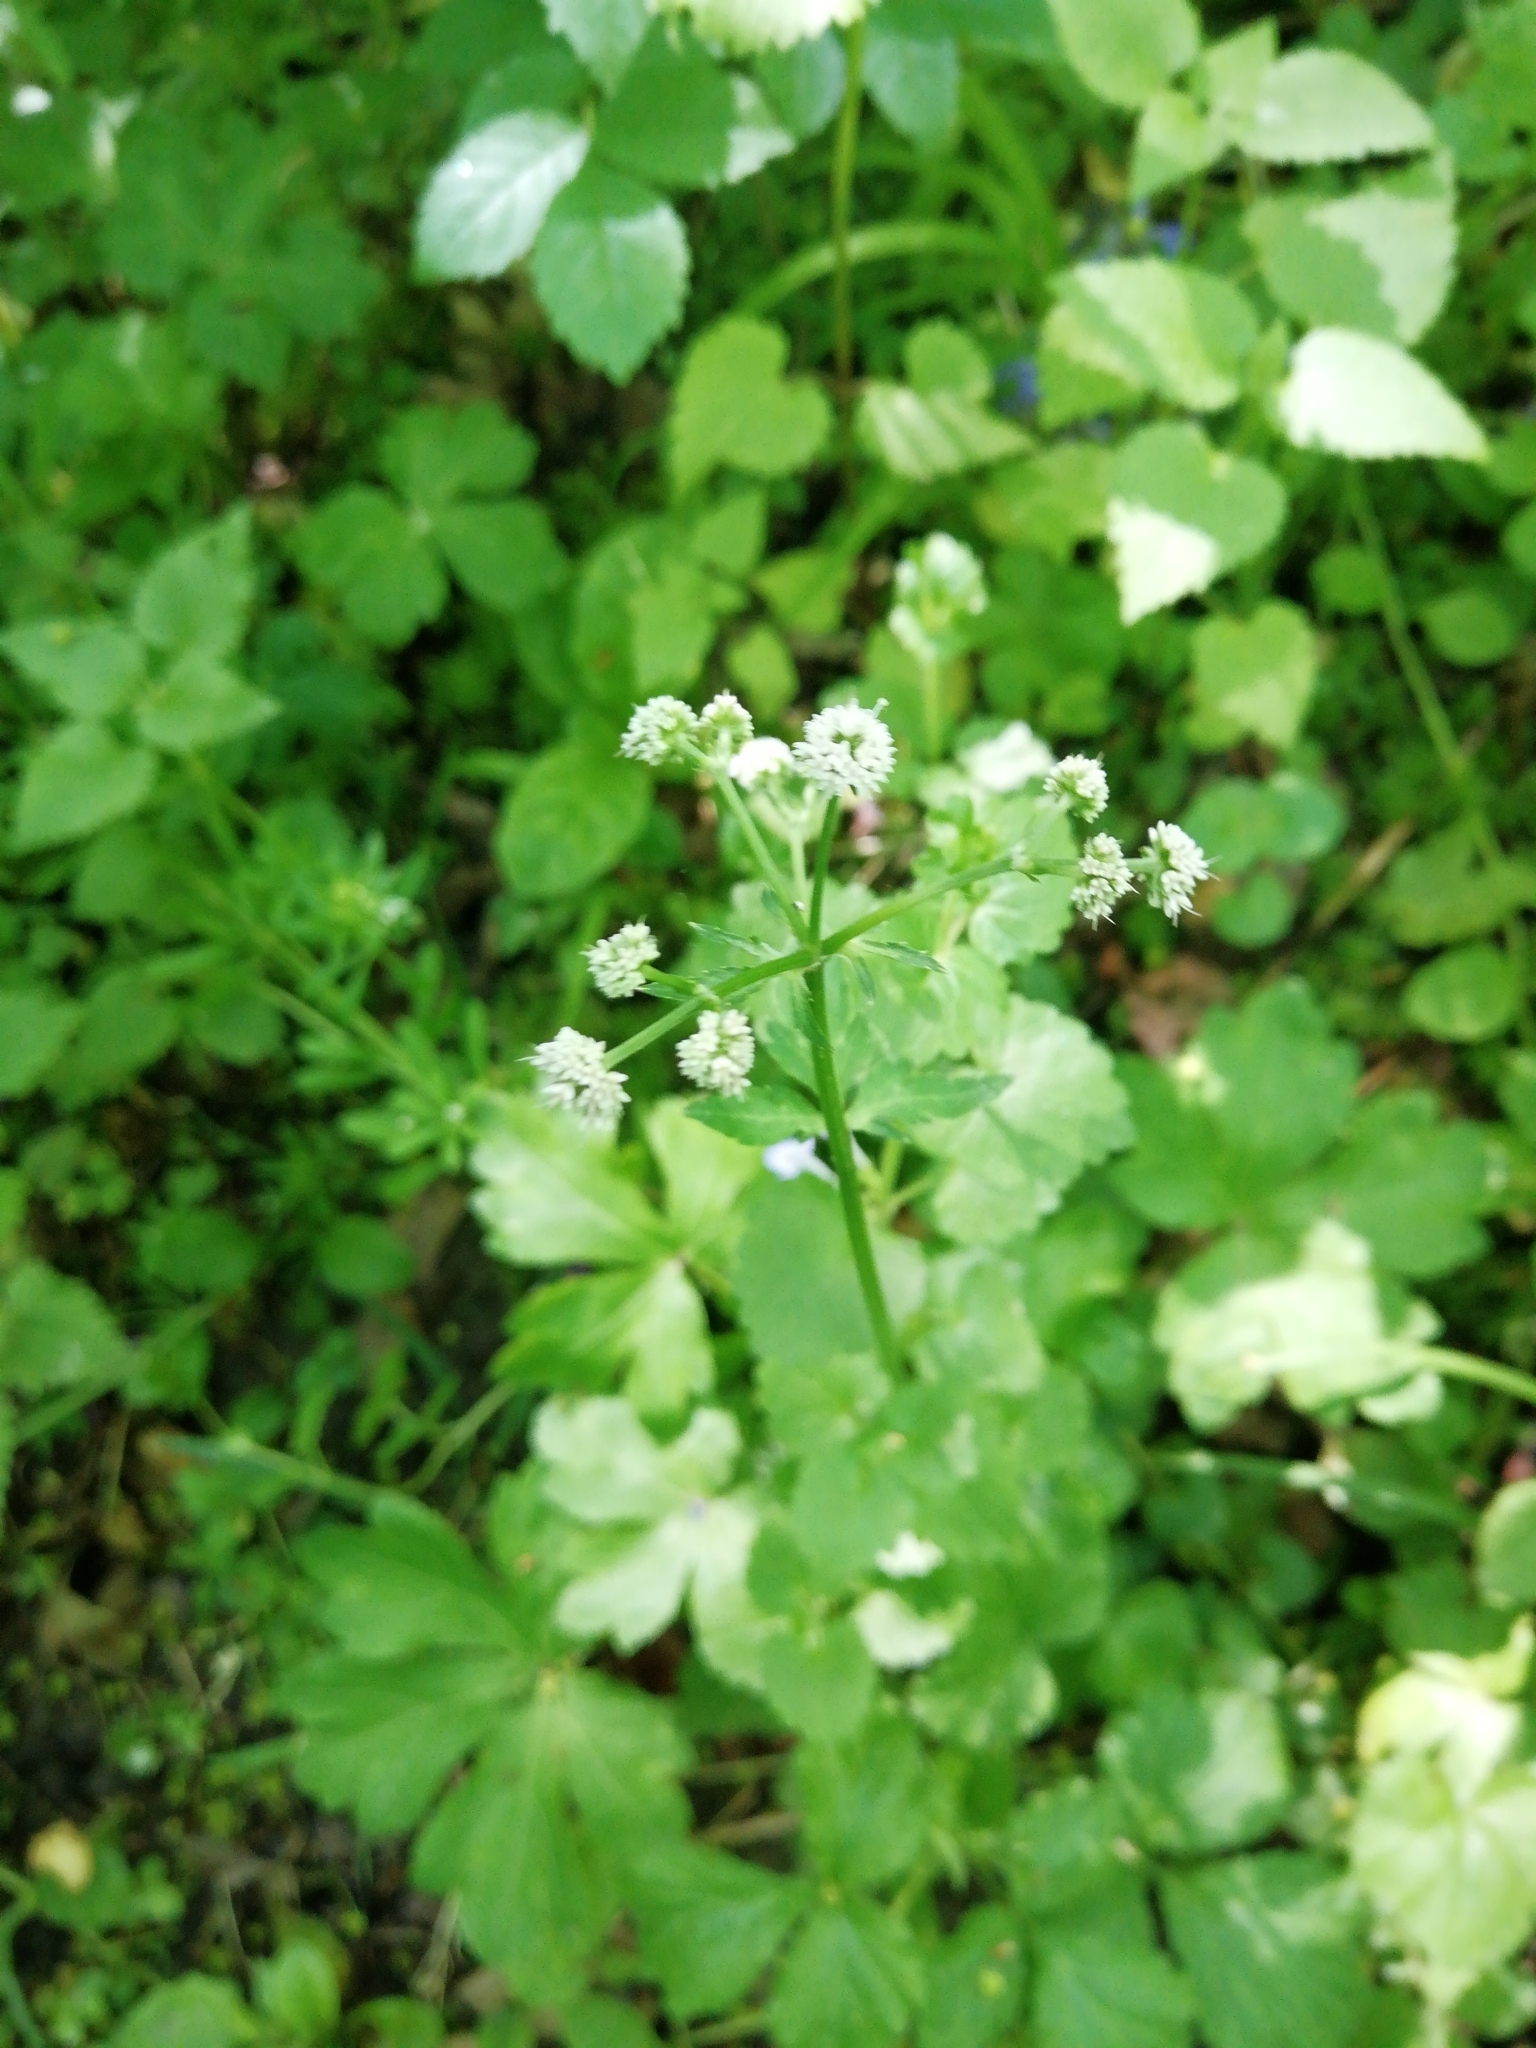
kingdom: Plantae
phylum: Tracheophyta
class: Magnoliopsida
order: Apiales
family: Apiaceae
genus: Sanicula
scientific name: Sanicula europaea
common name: Sanicle
